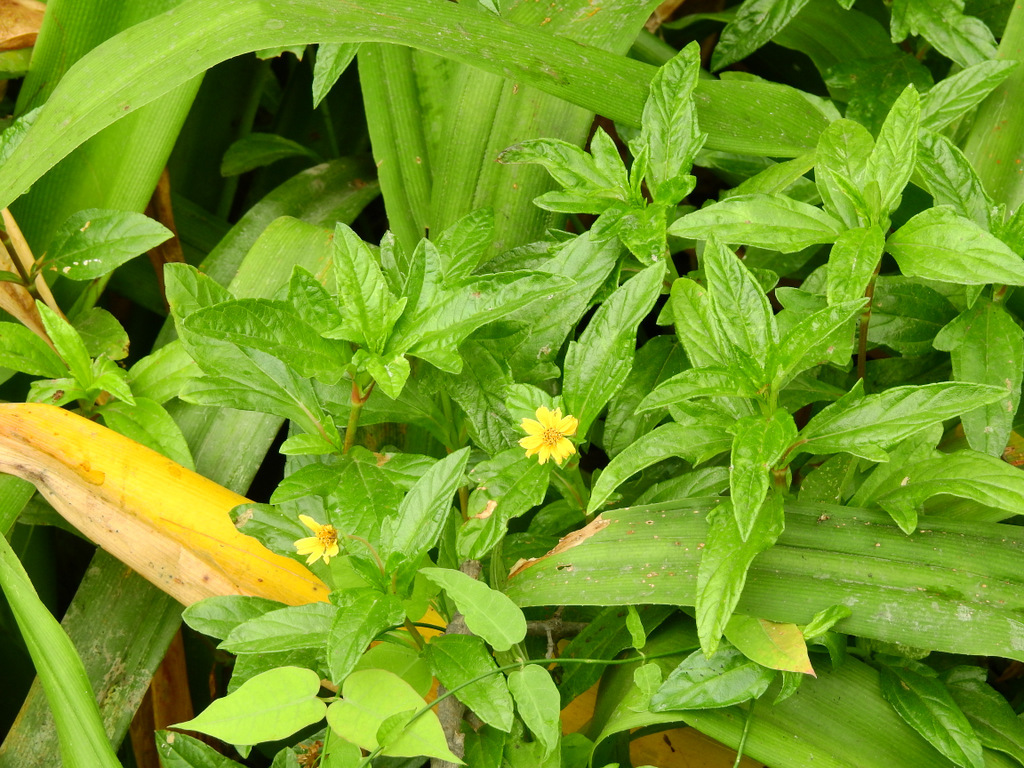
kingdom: Plantae
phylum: Tracheophyta
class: Magnoliopsida
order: Asterales
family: Asteraceae
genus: Sphagneticola
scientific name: Sphagneticola trilobata
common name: Bay biscayne creeping-oxeye
